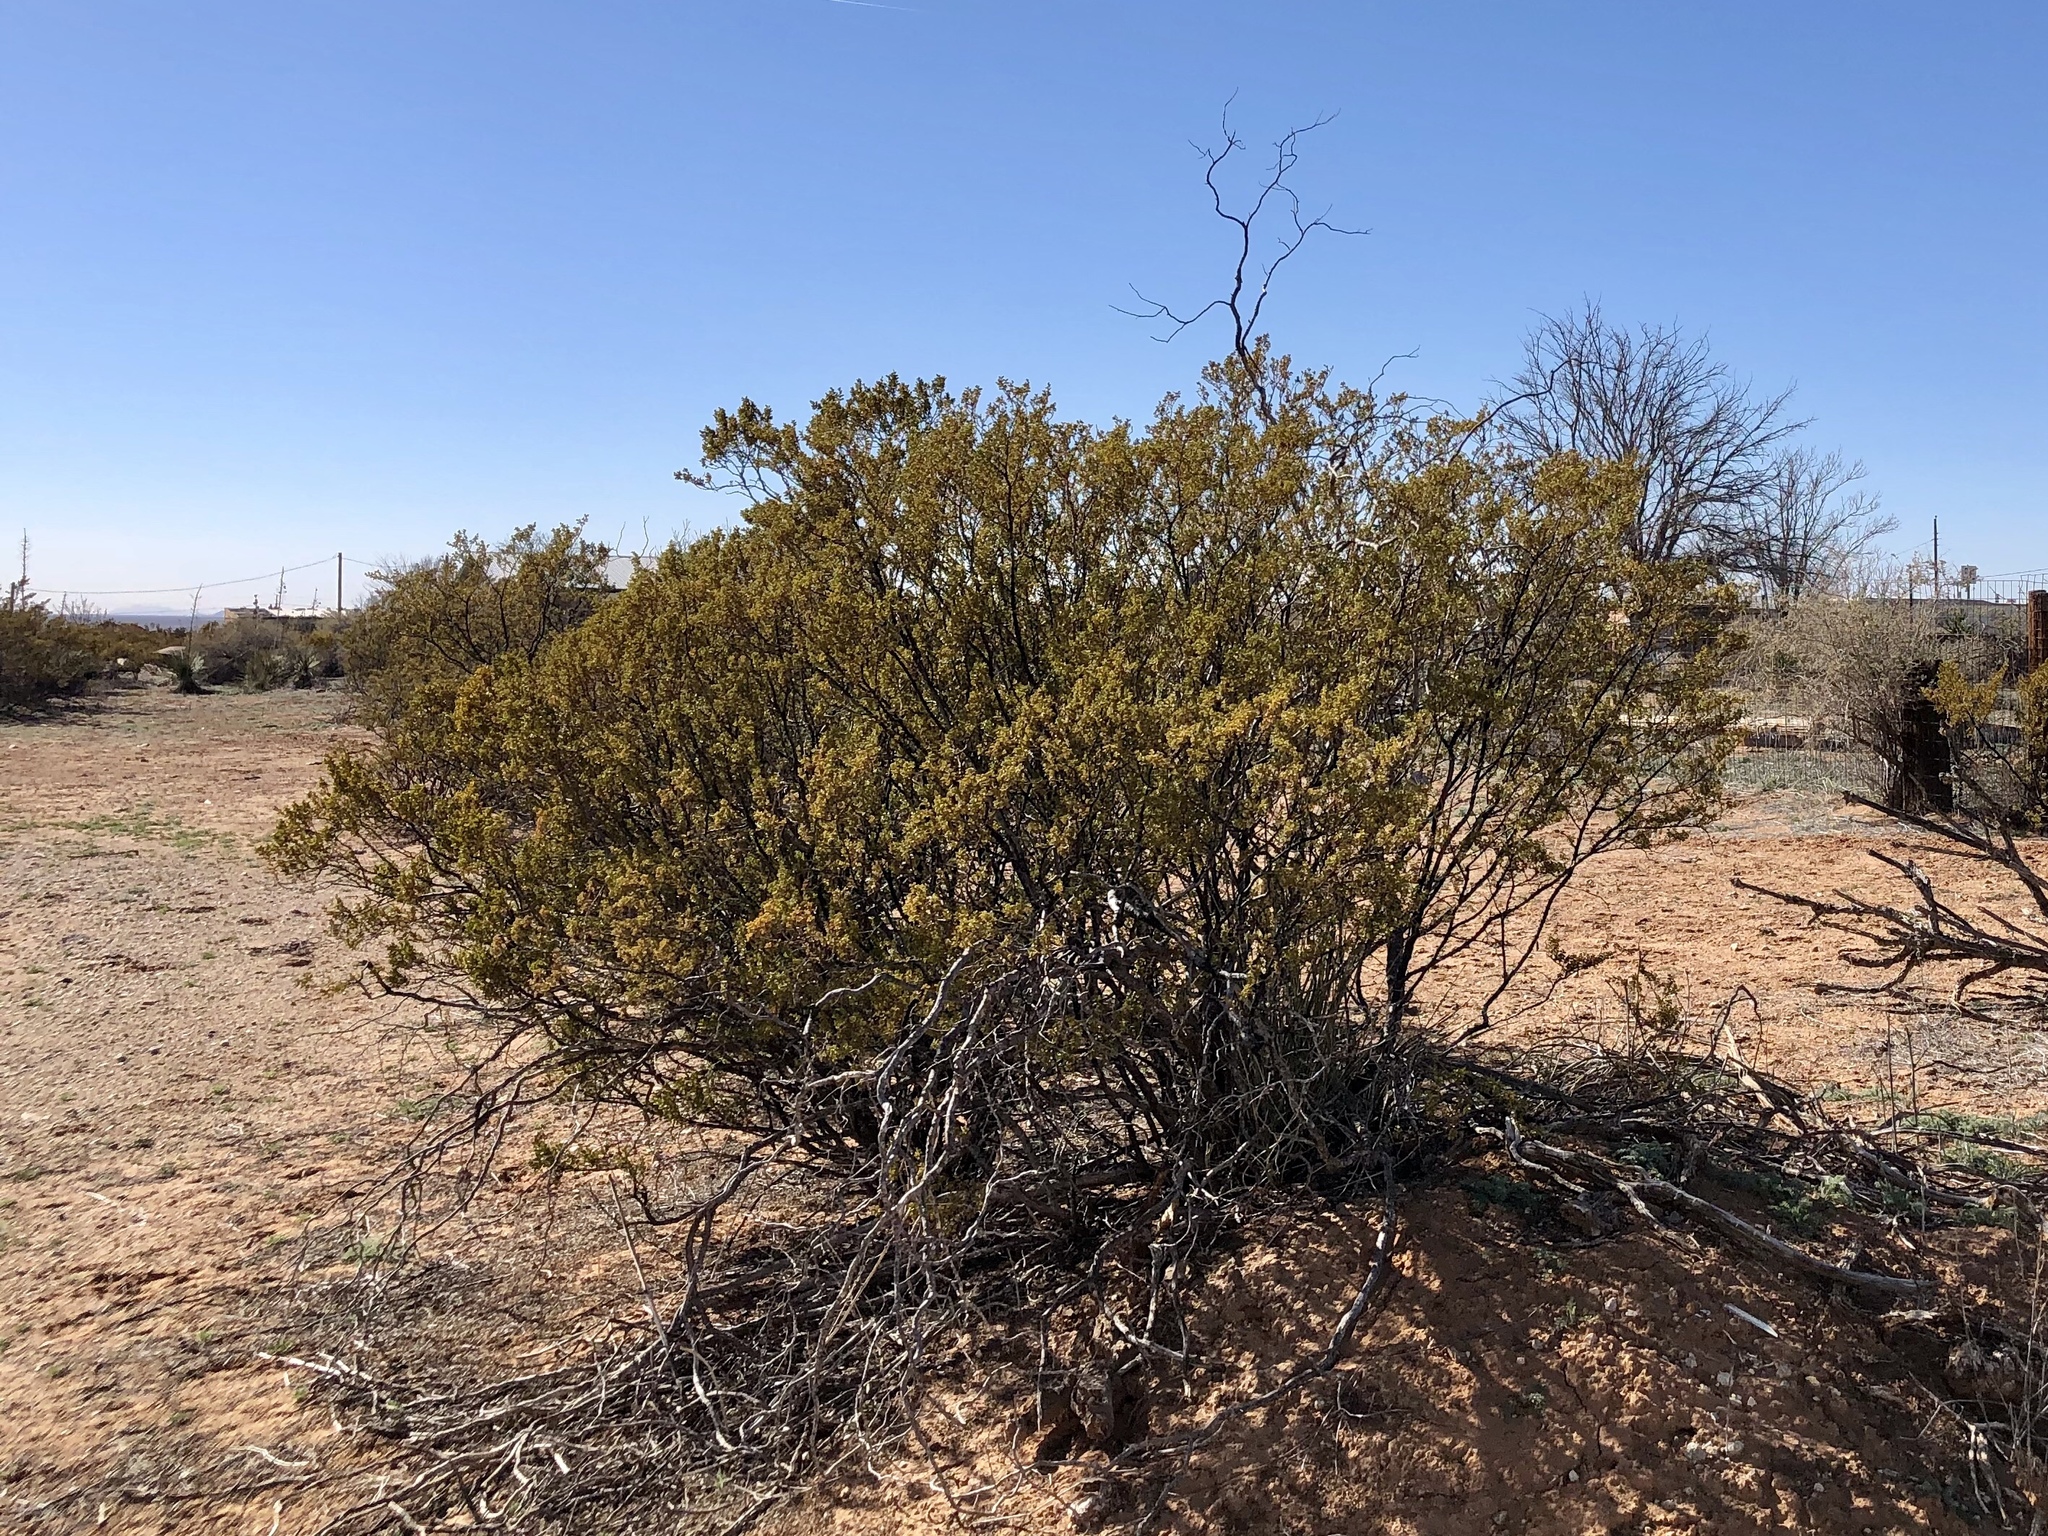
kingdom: Plantae
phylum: Tracheophyta
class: Magnoliopsida
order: Zygophyllales
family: Zygophyllaceae
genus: Larrea
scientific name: Larrea tridentata
